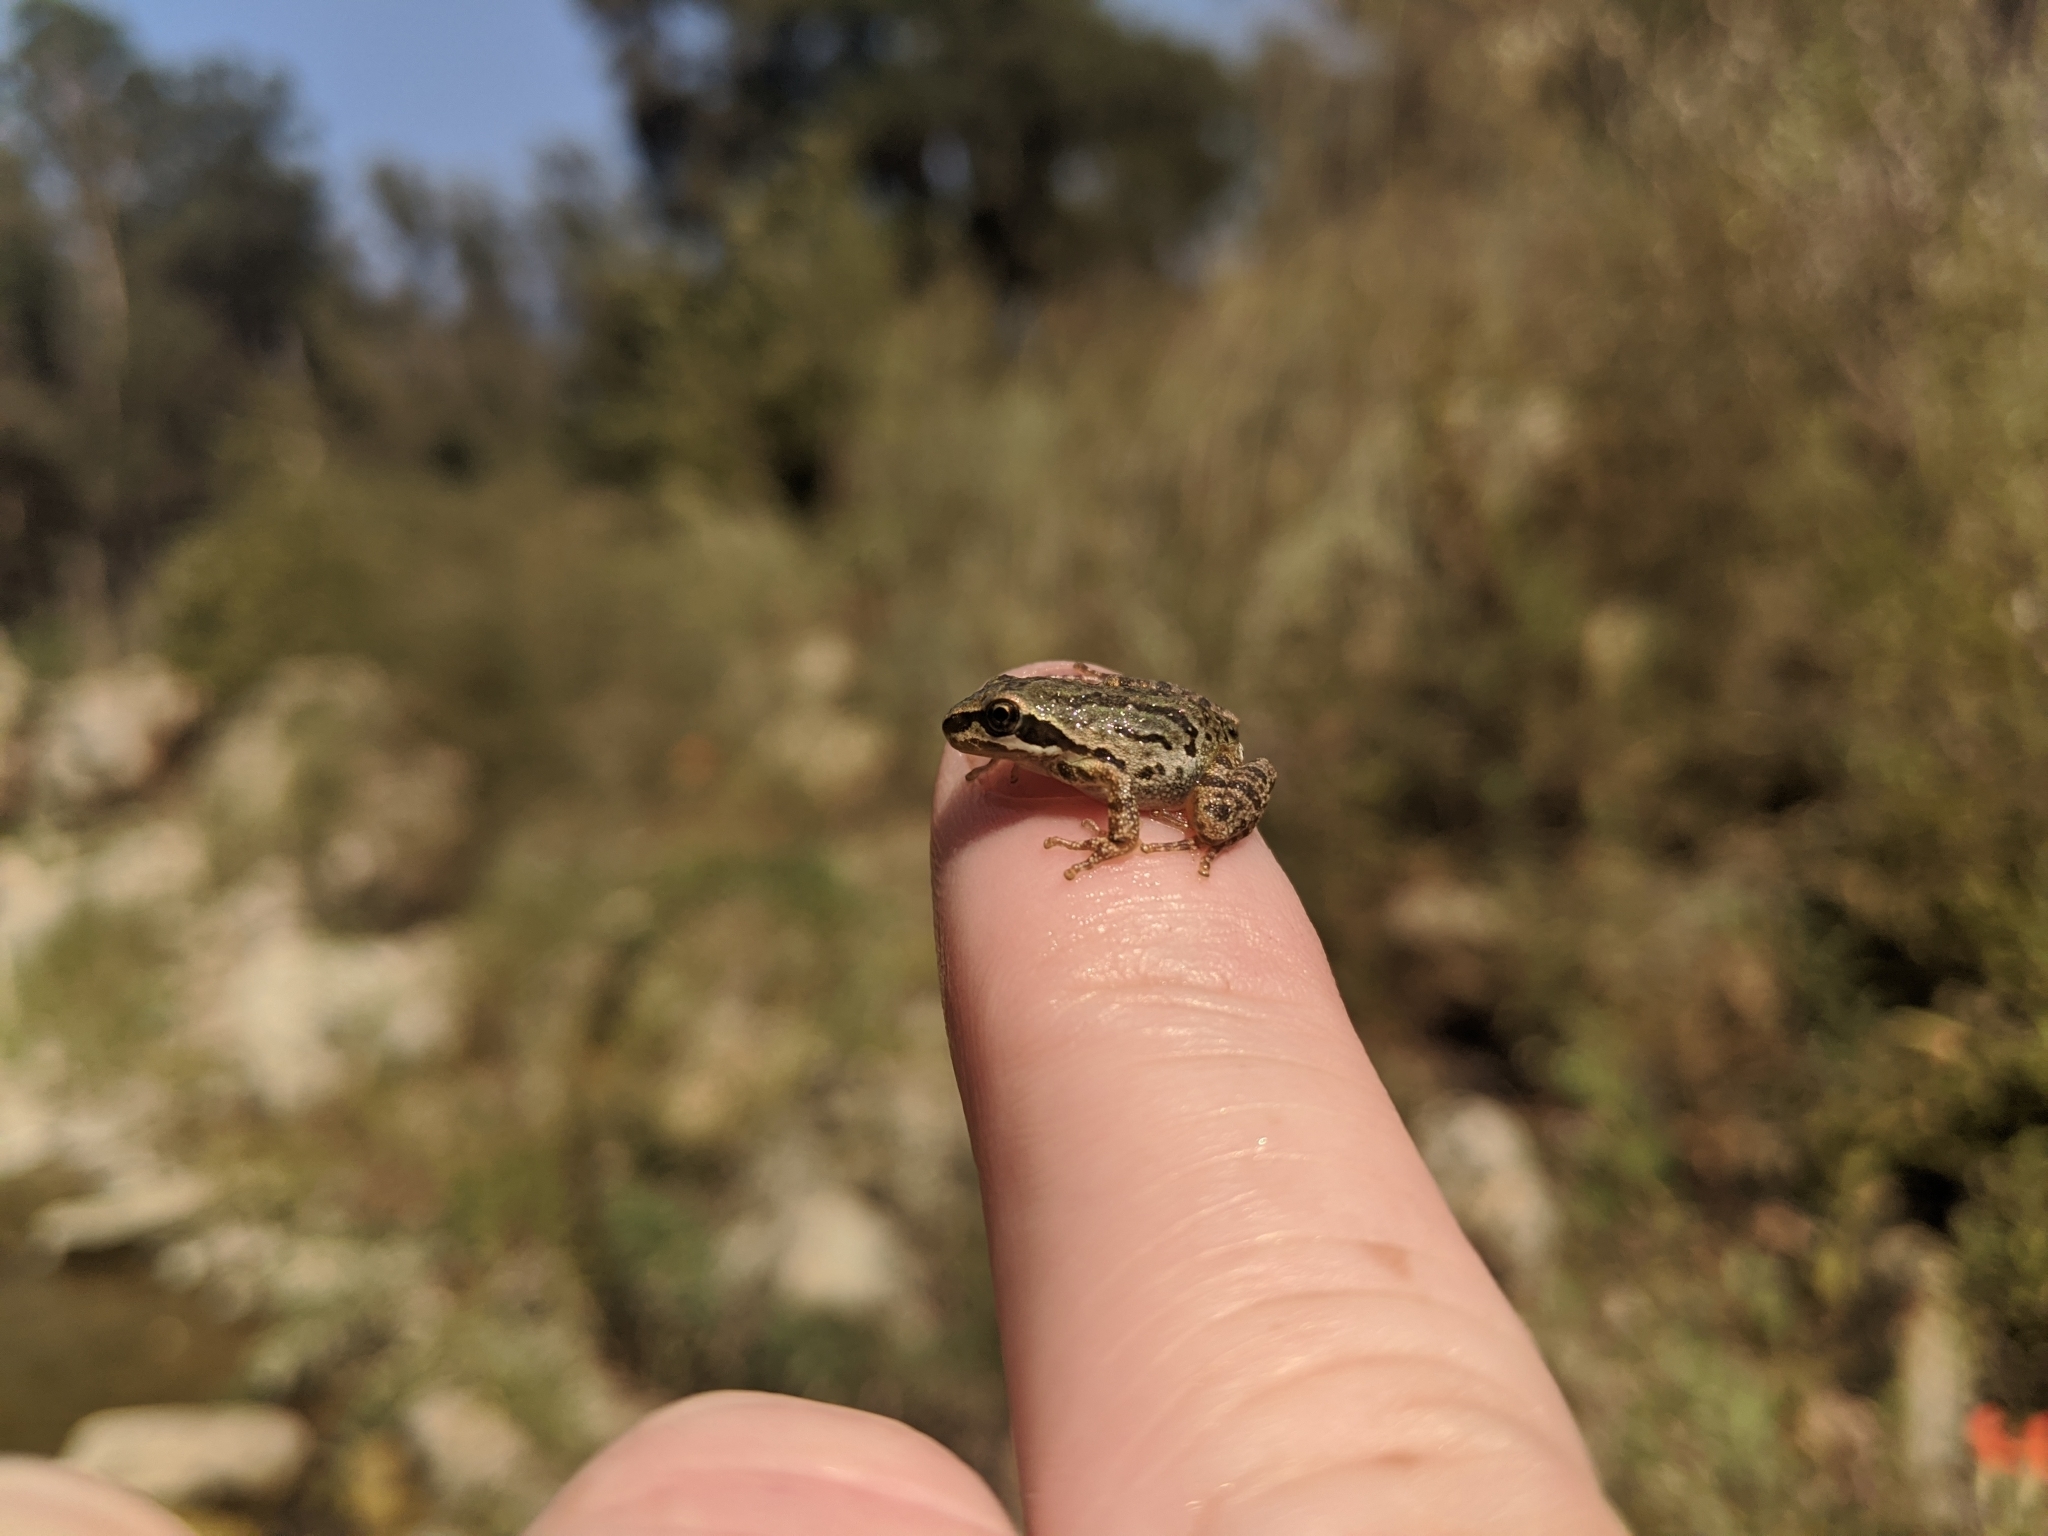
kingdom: Animalia
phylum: Chordata
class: Amphibia
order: Anura
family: Hylidae
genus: Pseudacris
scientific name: Pseudacris regilla
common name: Pacific chorus frog
